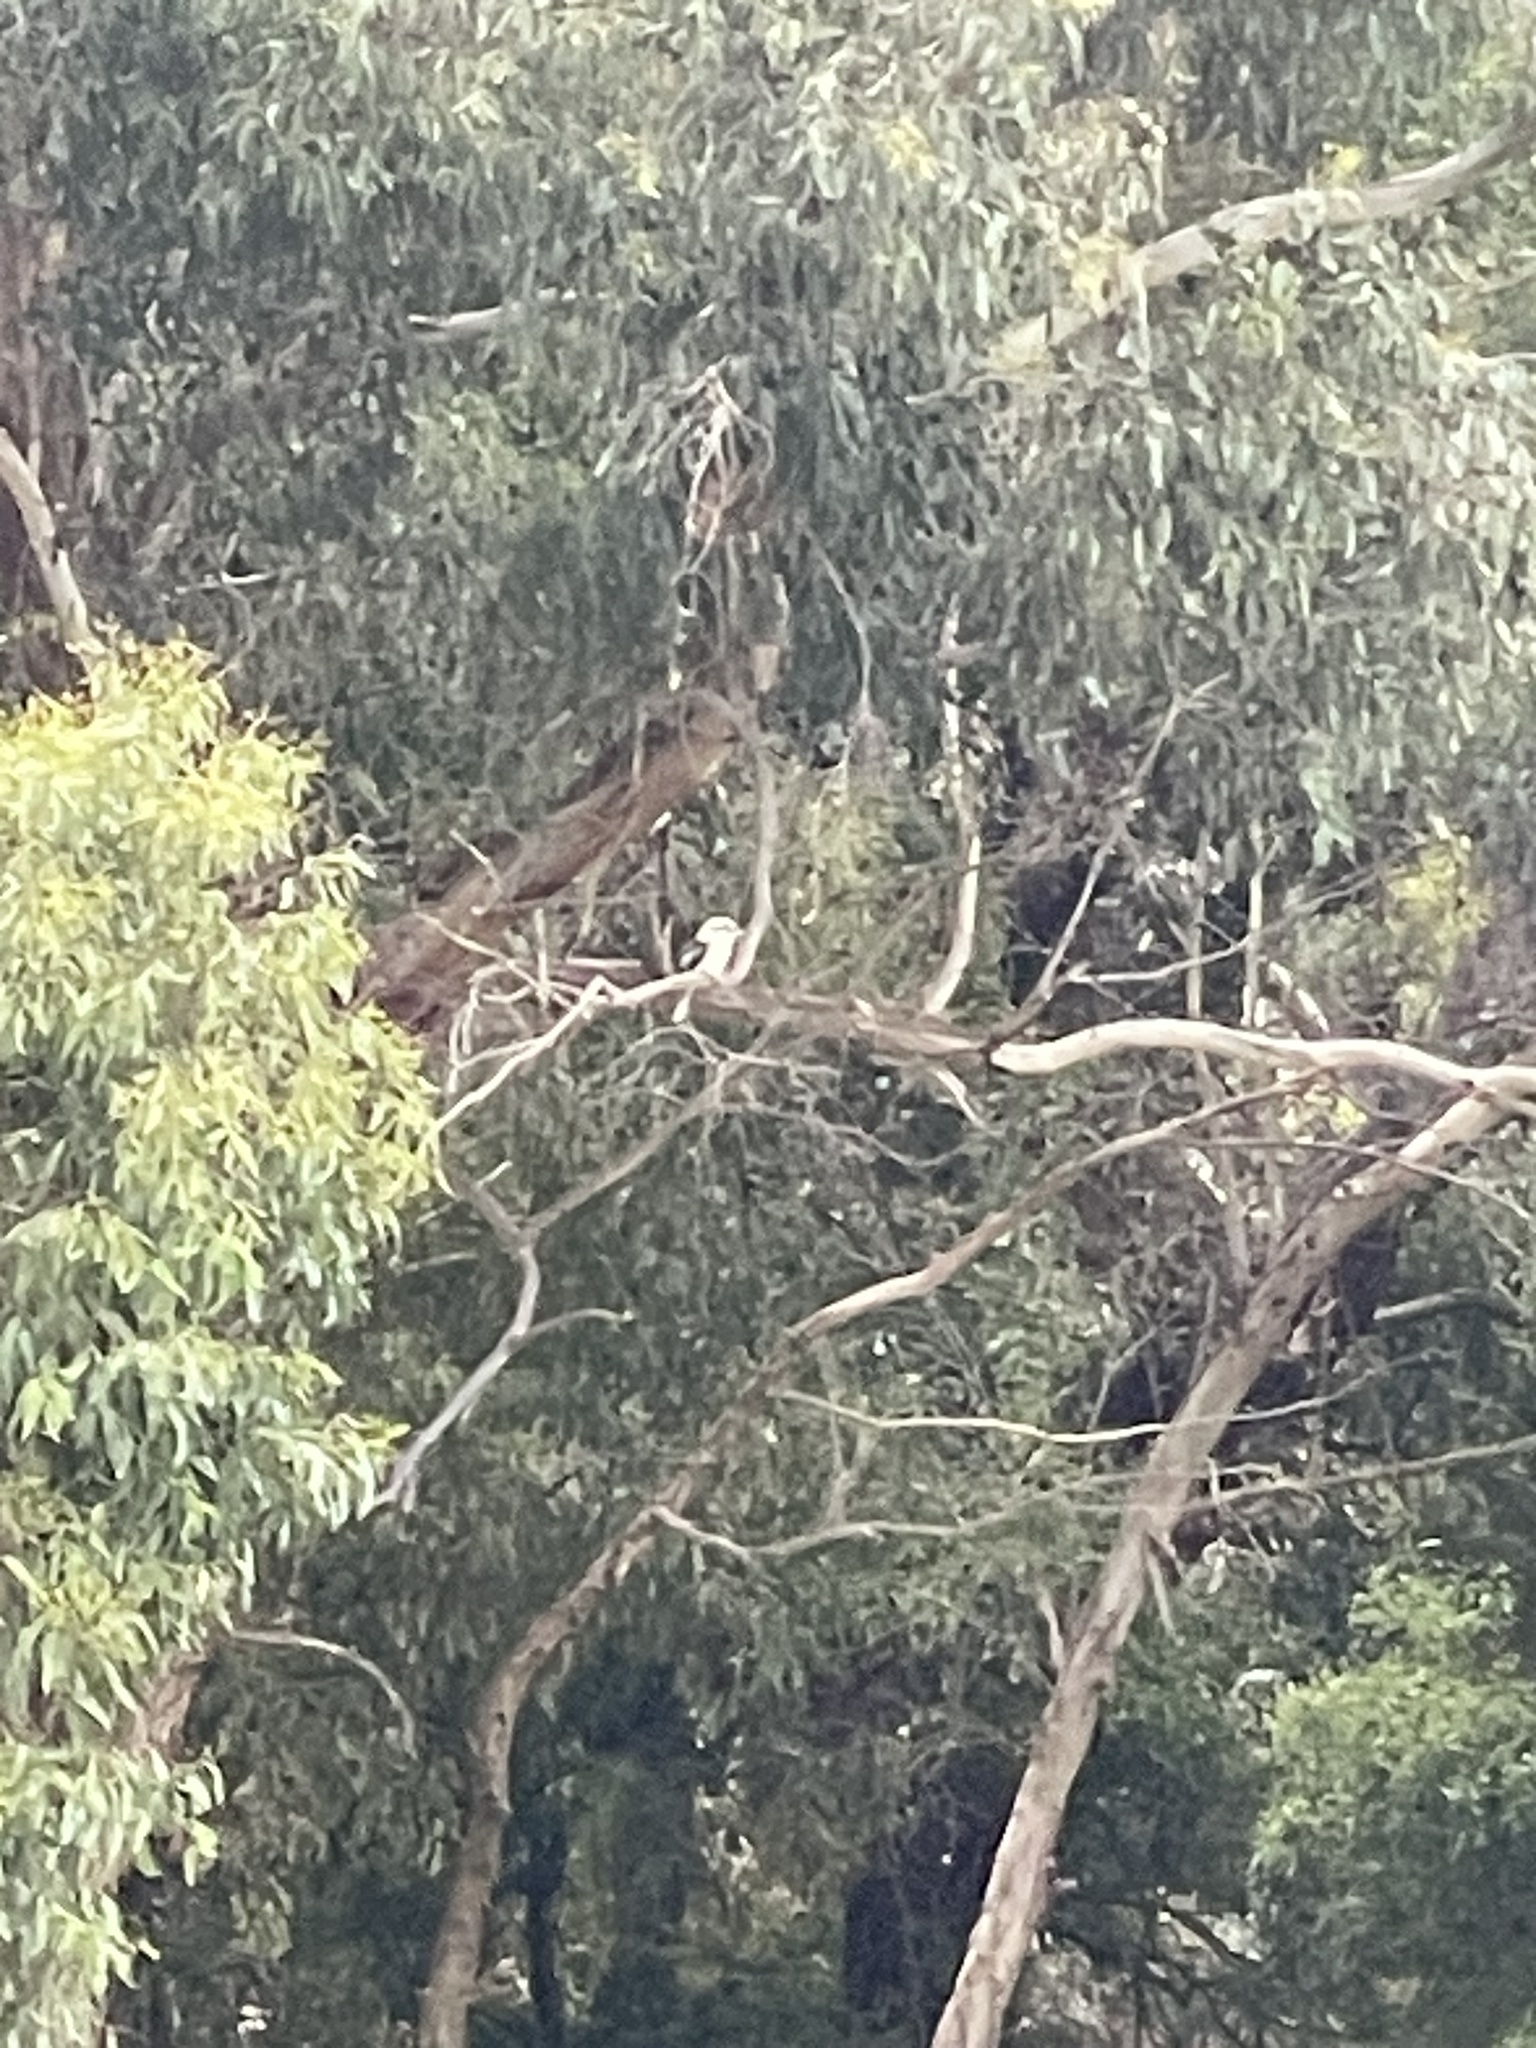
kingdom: Animalia
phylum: Chordata
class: Aves
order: Coraciiformes
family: Alcedinidae
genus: Dacelo
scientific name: Dacelo novaeguineae
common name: Laughing kookaburra
